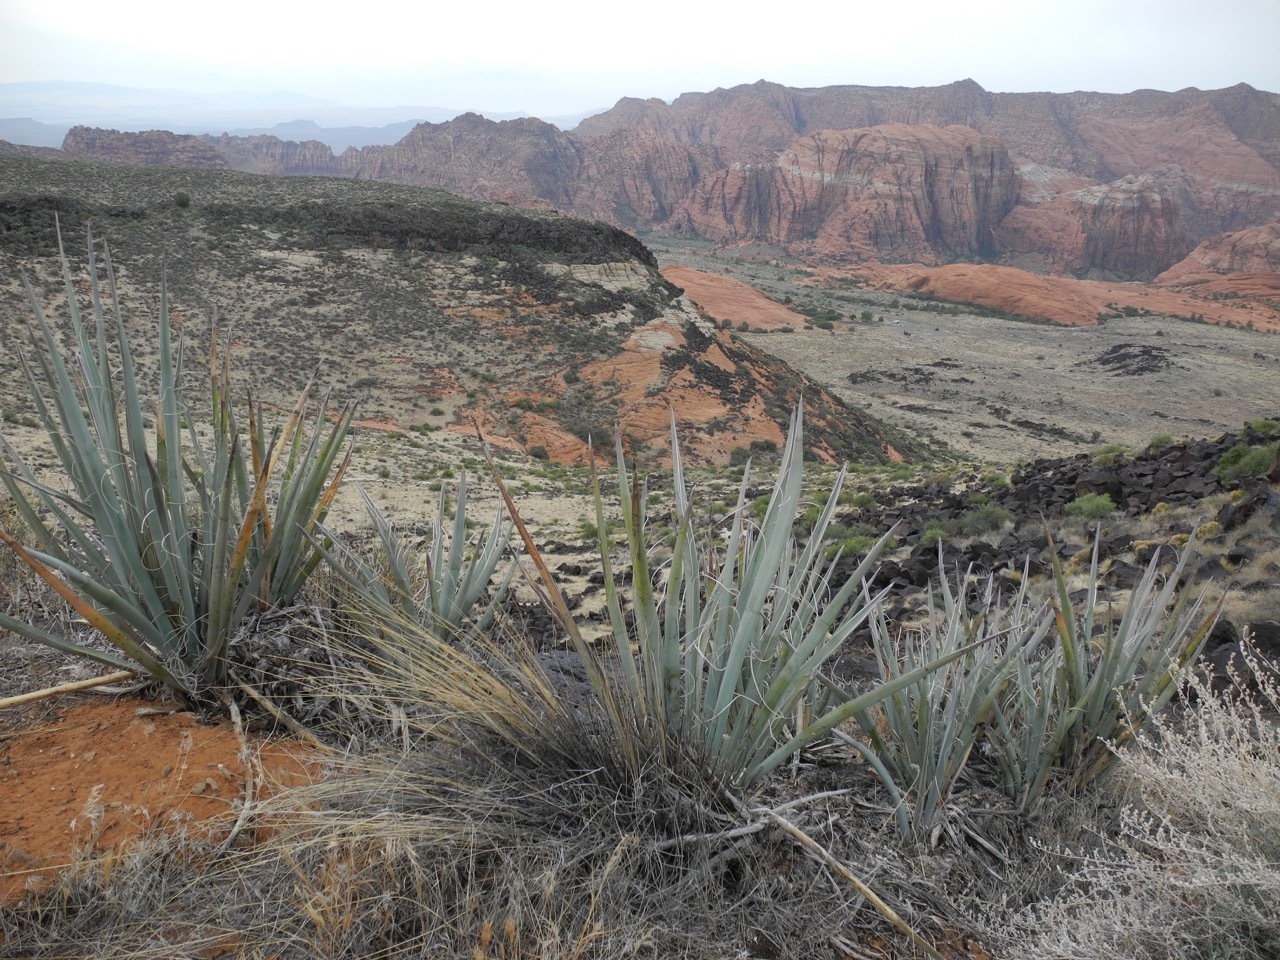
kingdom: Plantae
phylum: Tracheophyta
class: Liliopsida
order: Asparagales
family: Asparagaceae
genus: Yucca
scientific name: Yucca baccata
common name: Banana yucca
